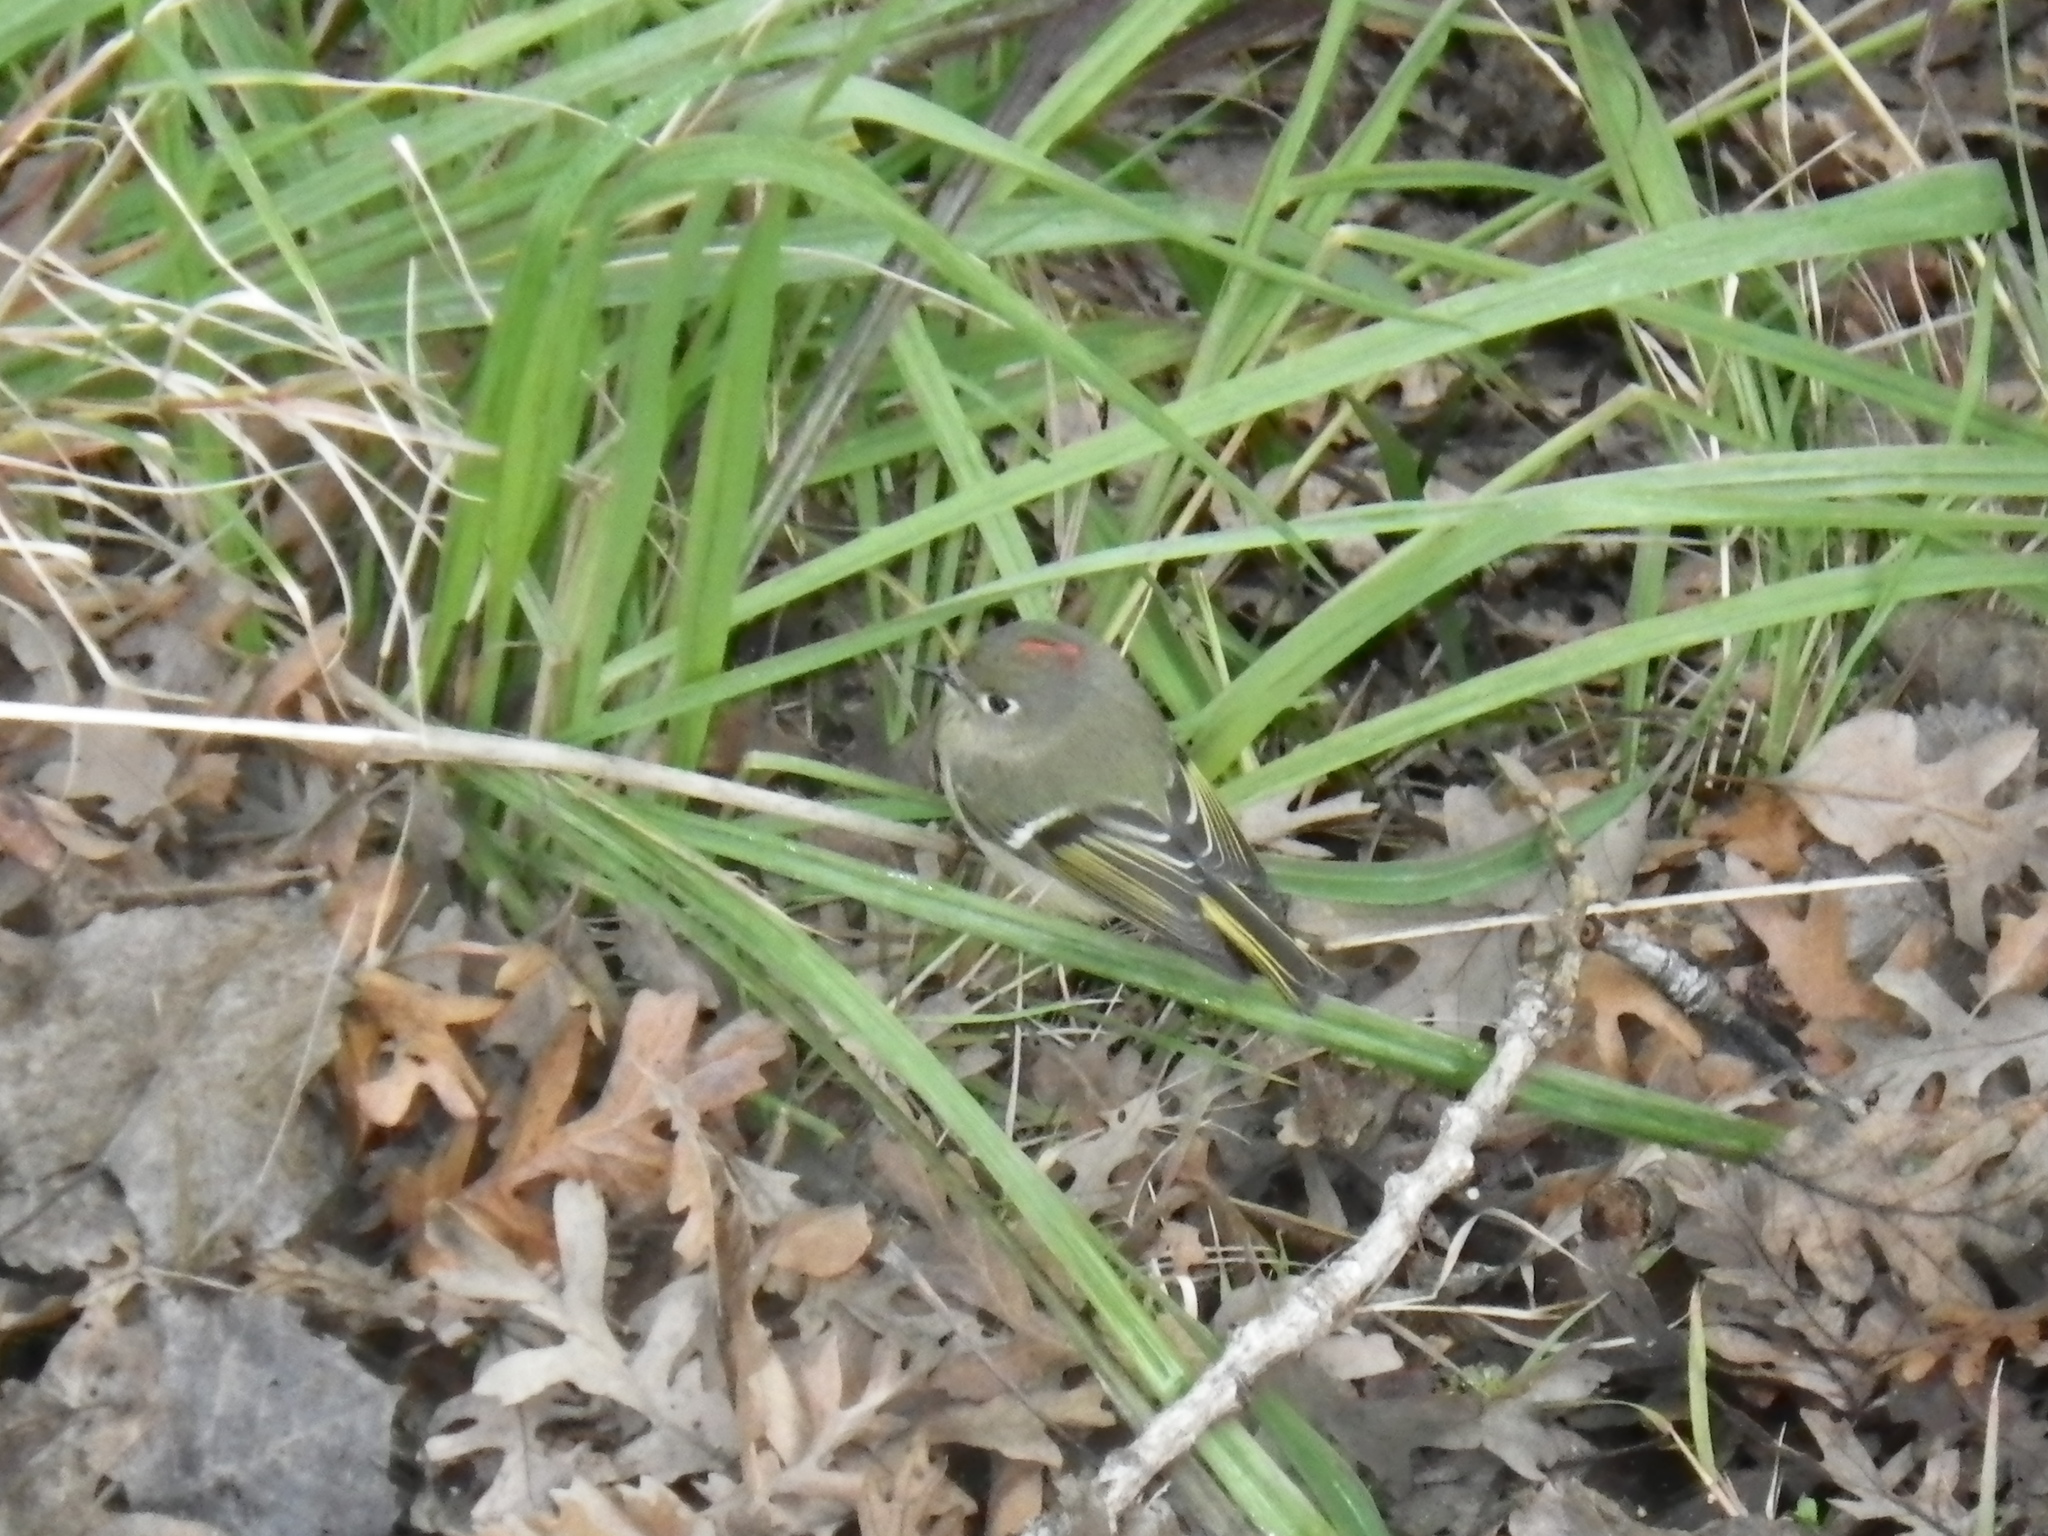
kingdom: Animalia
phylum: Chordata
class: Aves
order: Passeriformes
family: Regulidae
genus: Regulus
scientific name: Regulus calendula
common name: Ruby-crowned kinglet
